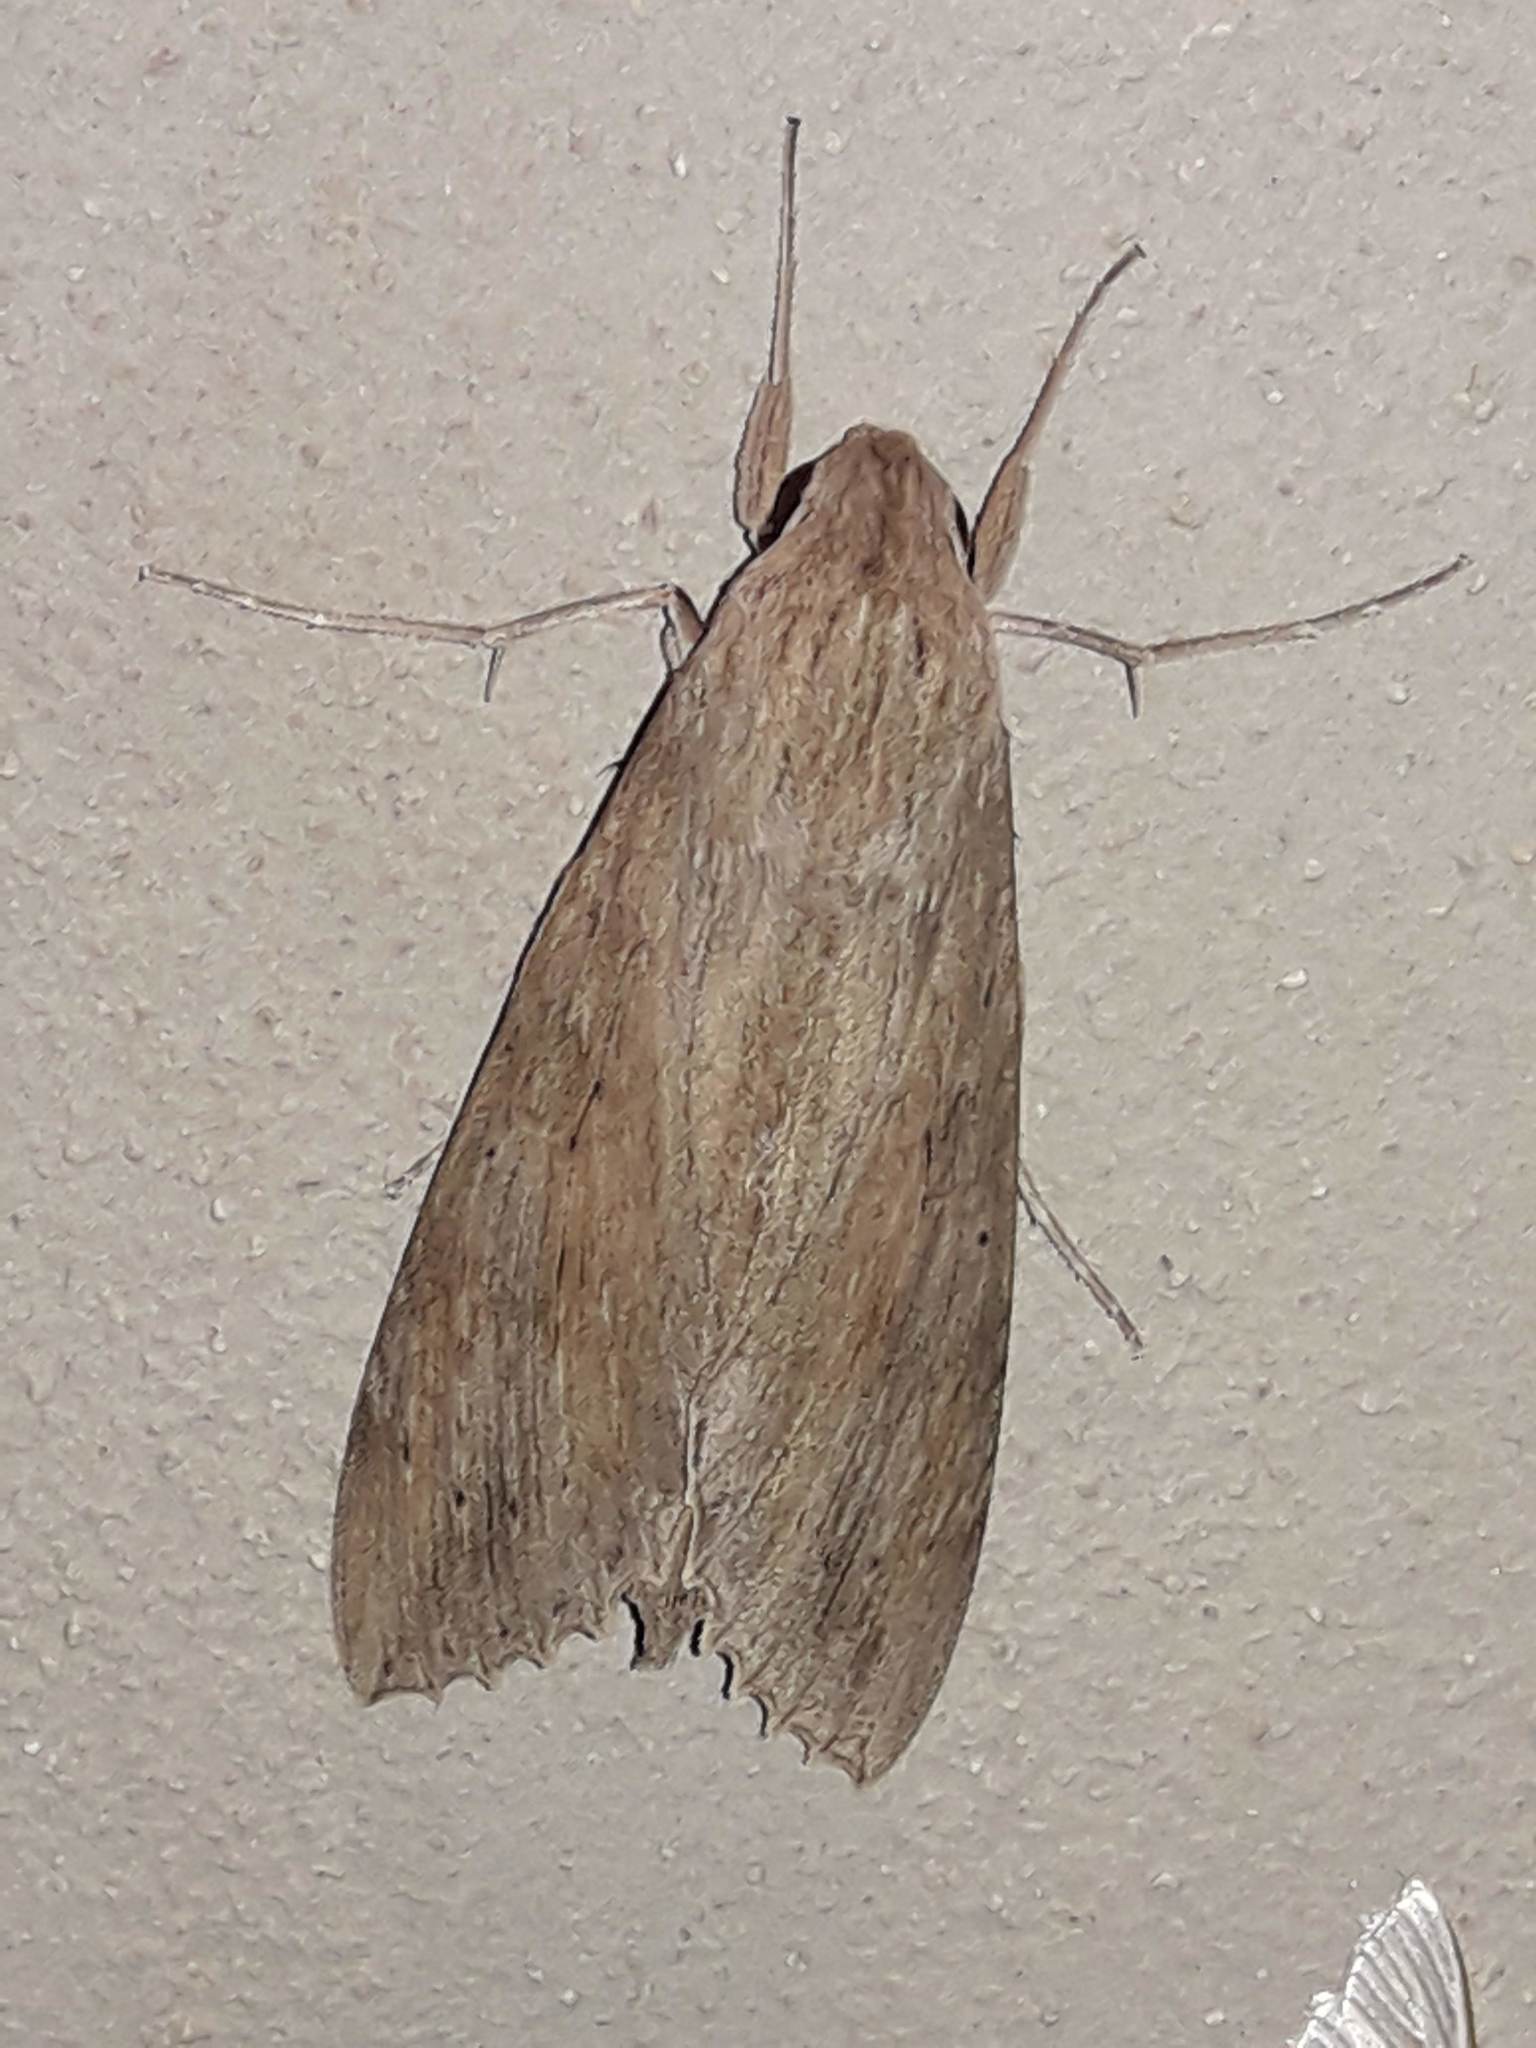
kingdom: Animalia
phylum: Arthropoda
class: Insecta
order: Lepidoptera
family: Sphingidae
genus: Erinnyis
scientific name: Erinnyis ello
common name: Ello sphinx
